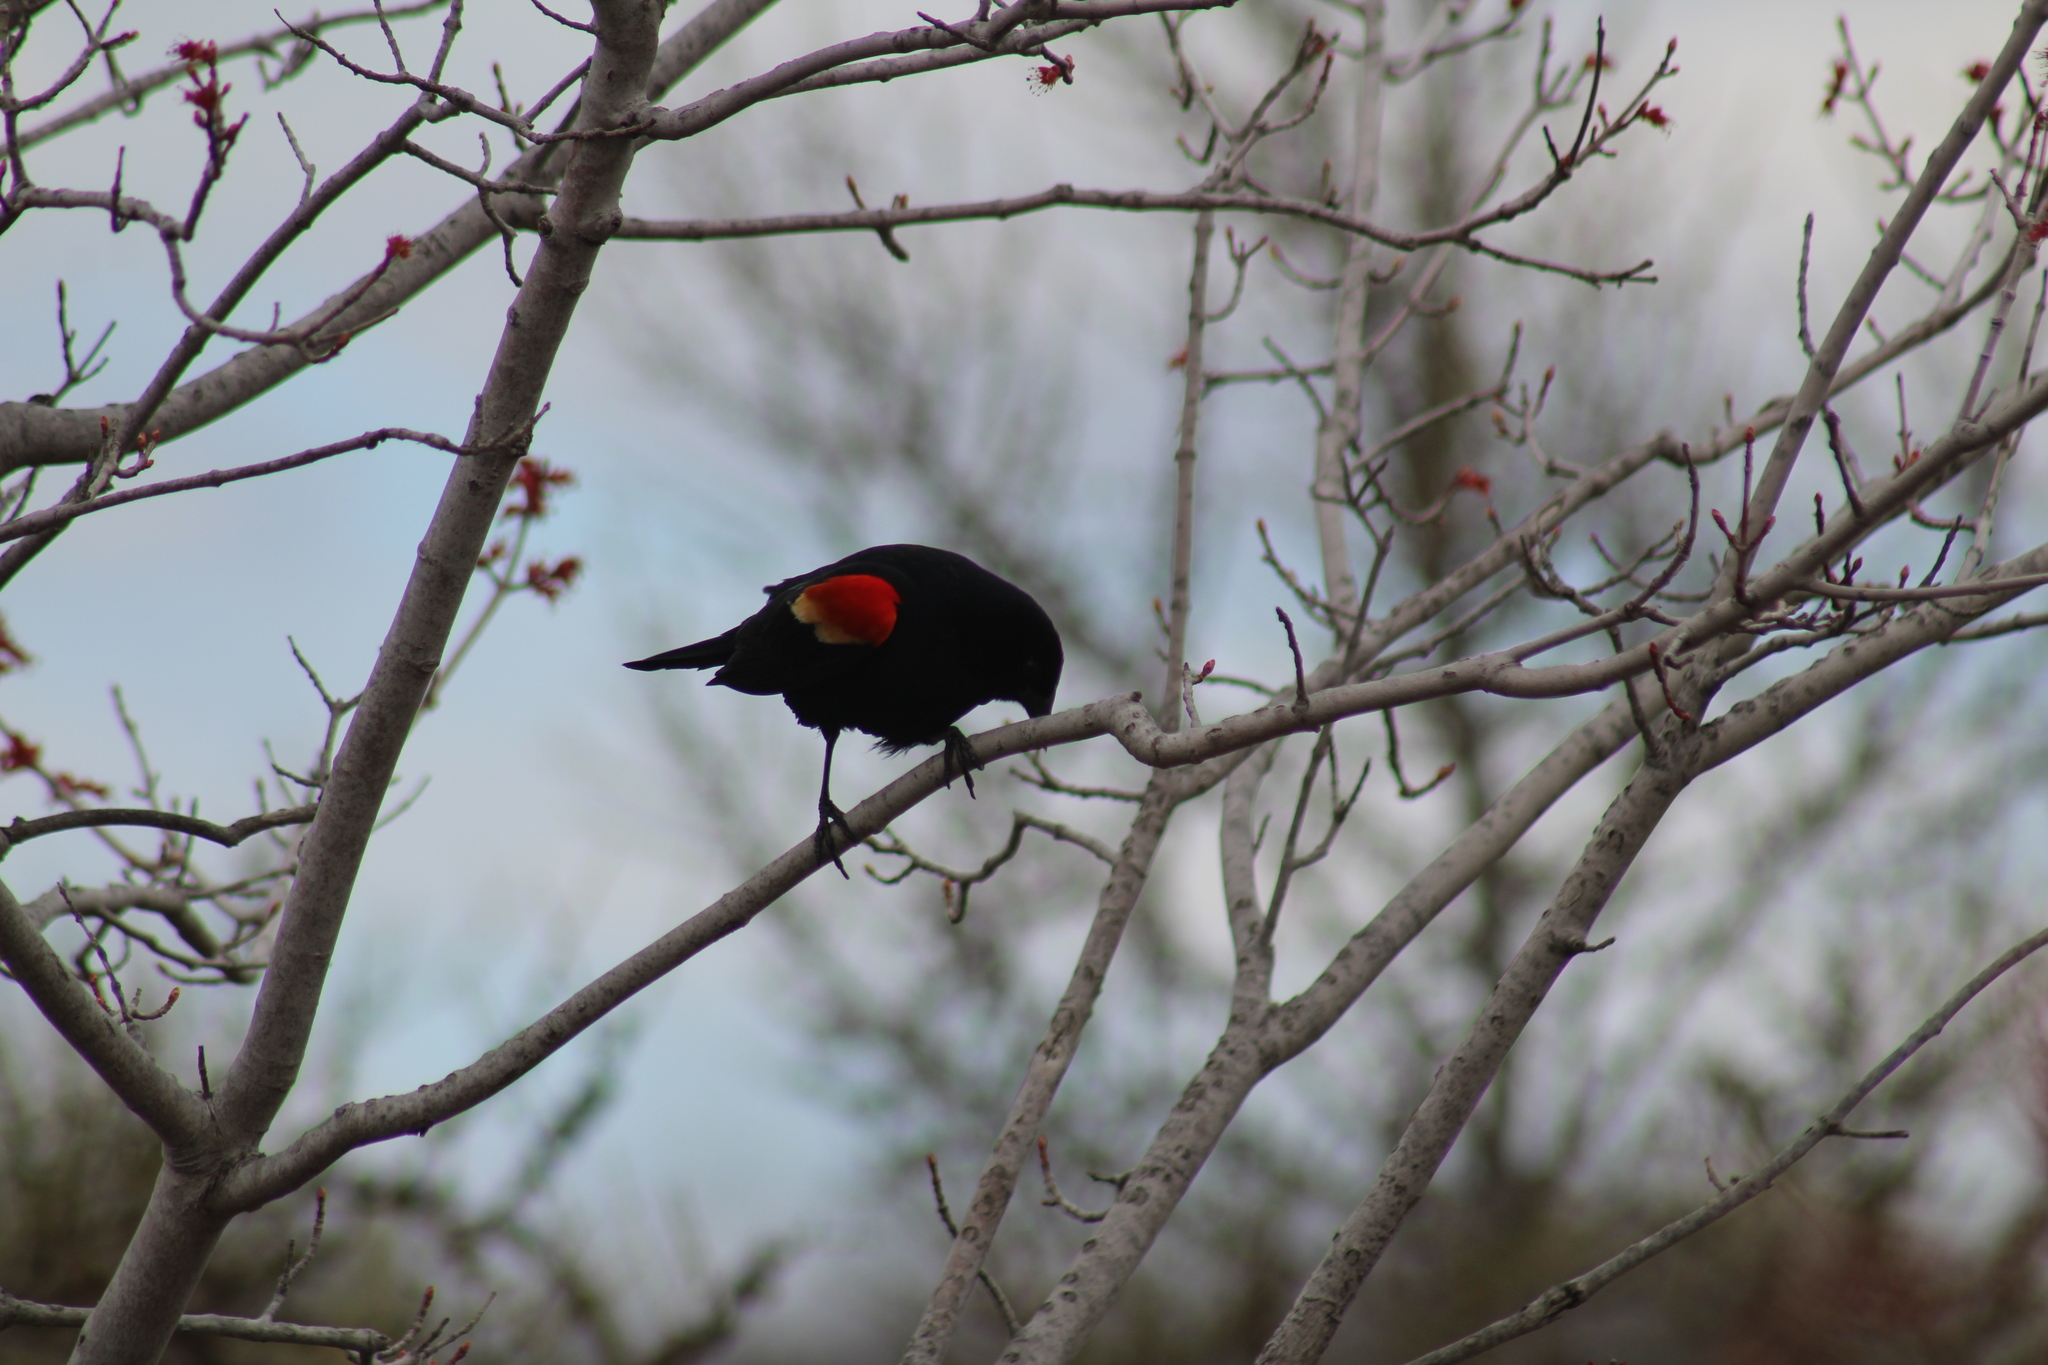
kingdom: Animalia
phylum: Chordata
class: Aves
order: Passeriformes
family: Icteridae
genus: Agelaius
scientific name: Agelaius phoeniceus
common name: Red-winged blackbird
